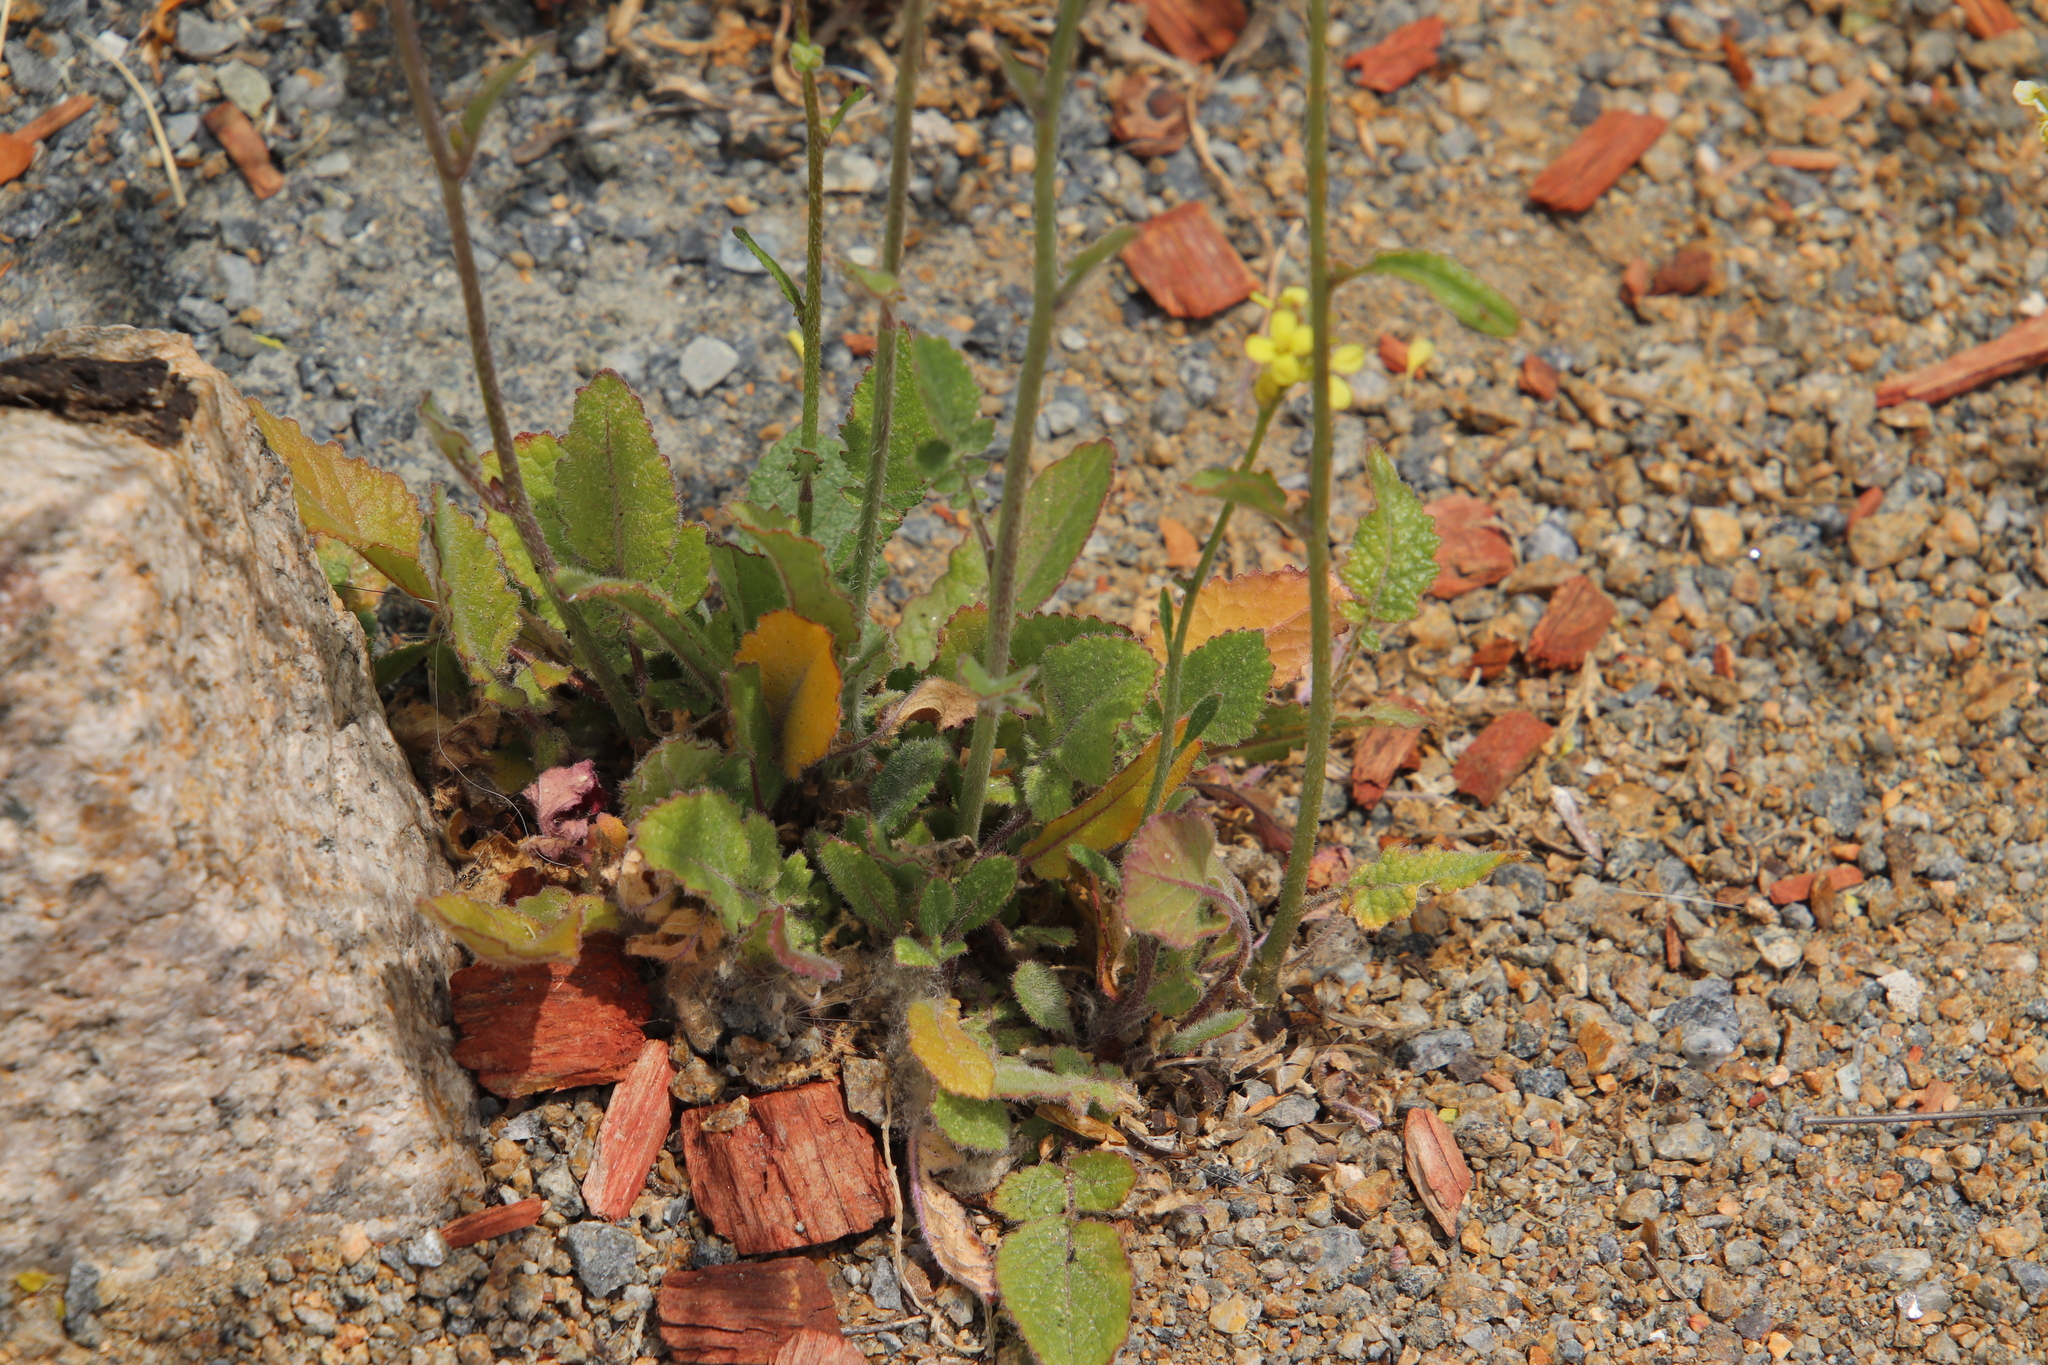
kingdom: Plantae
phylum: Tracheophyta
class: Magnoliopsida
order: Brassicales
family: Brassicaceae
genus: Hirschfeldia
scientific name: Hirschfeldia incana
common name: Hoary mustard
